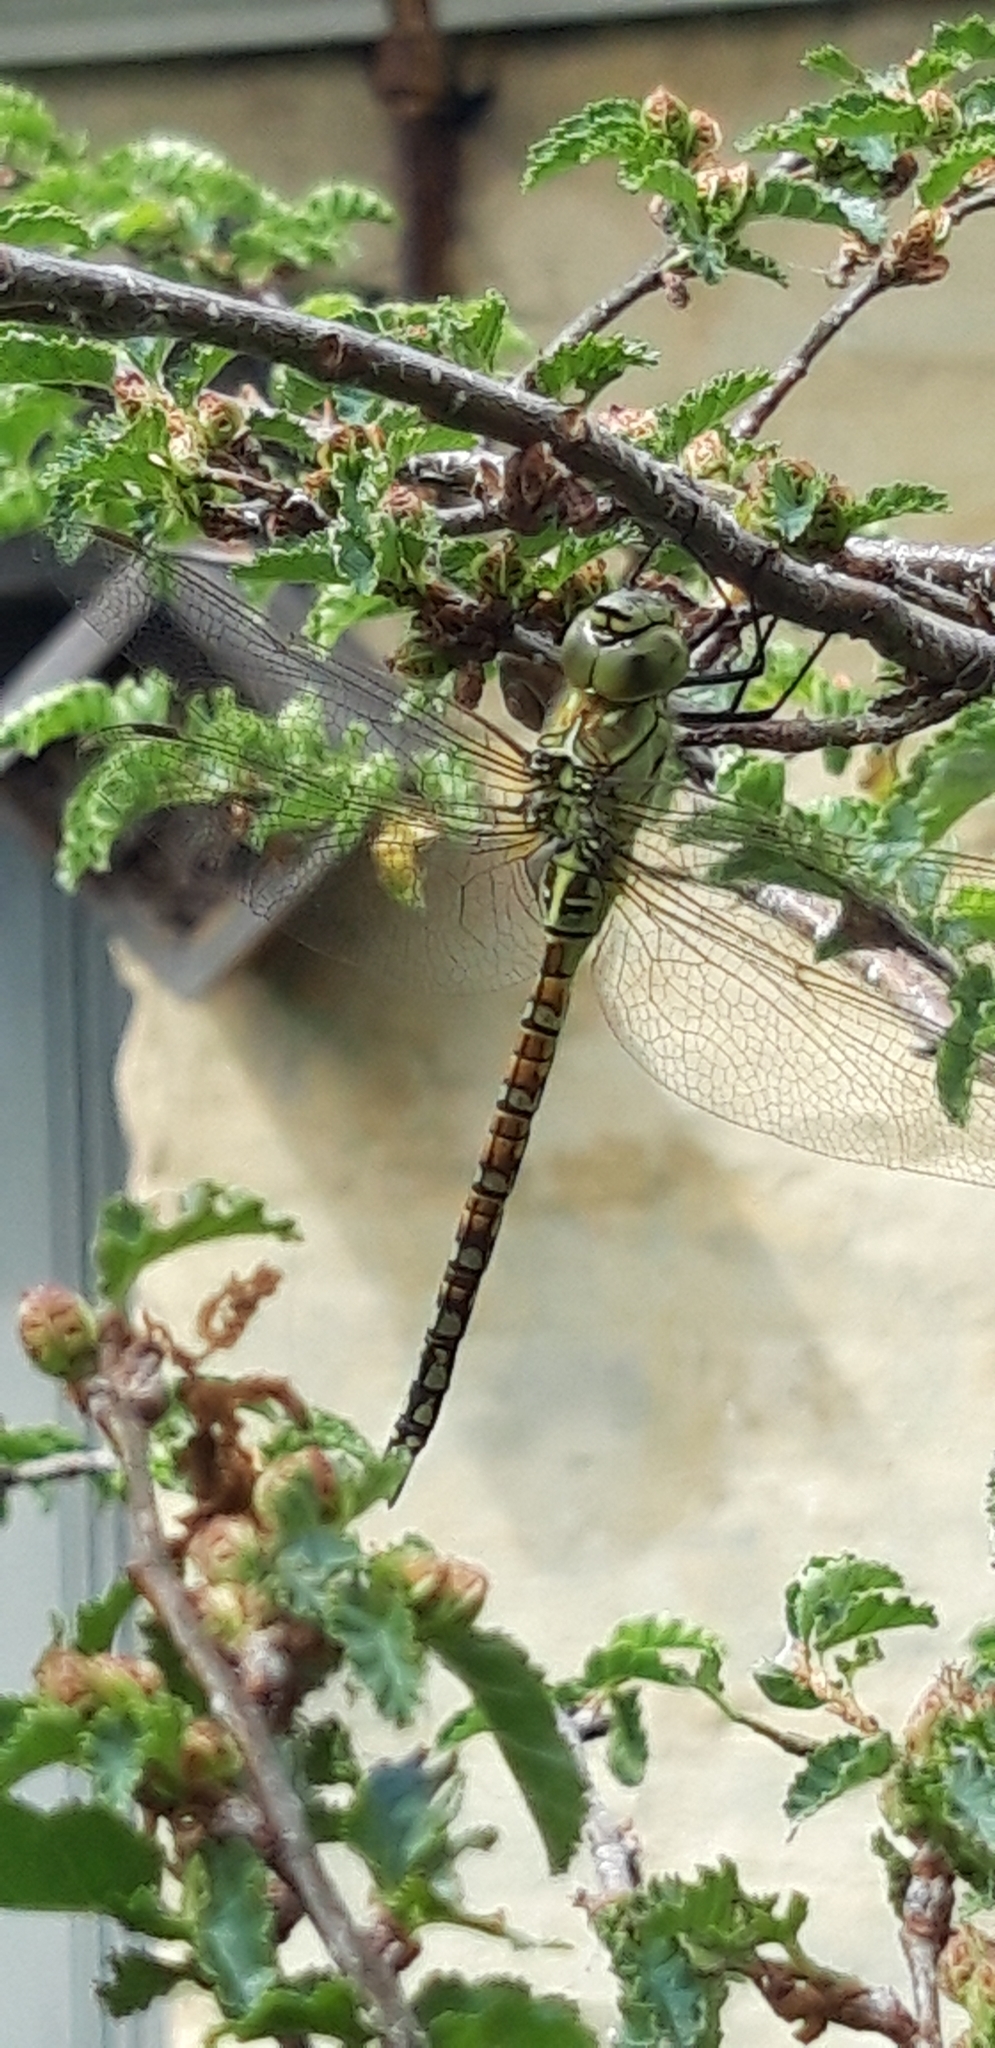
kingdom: Animalia
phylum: Arthropoda
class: Insecta
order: Odonata
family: Aeshnidae
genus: Aeshna
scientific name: Aeshna affinis
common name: Southern migrant hawker
